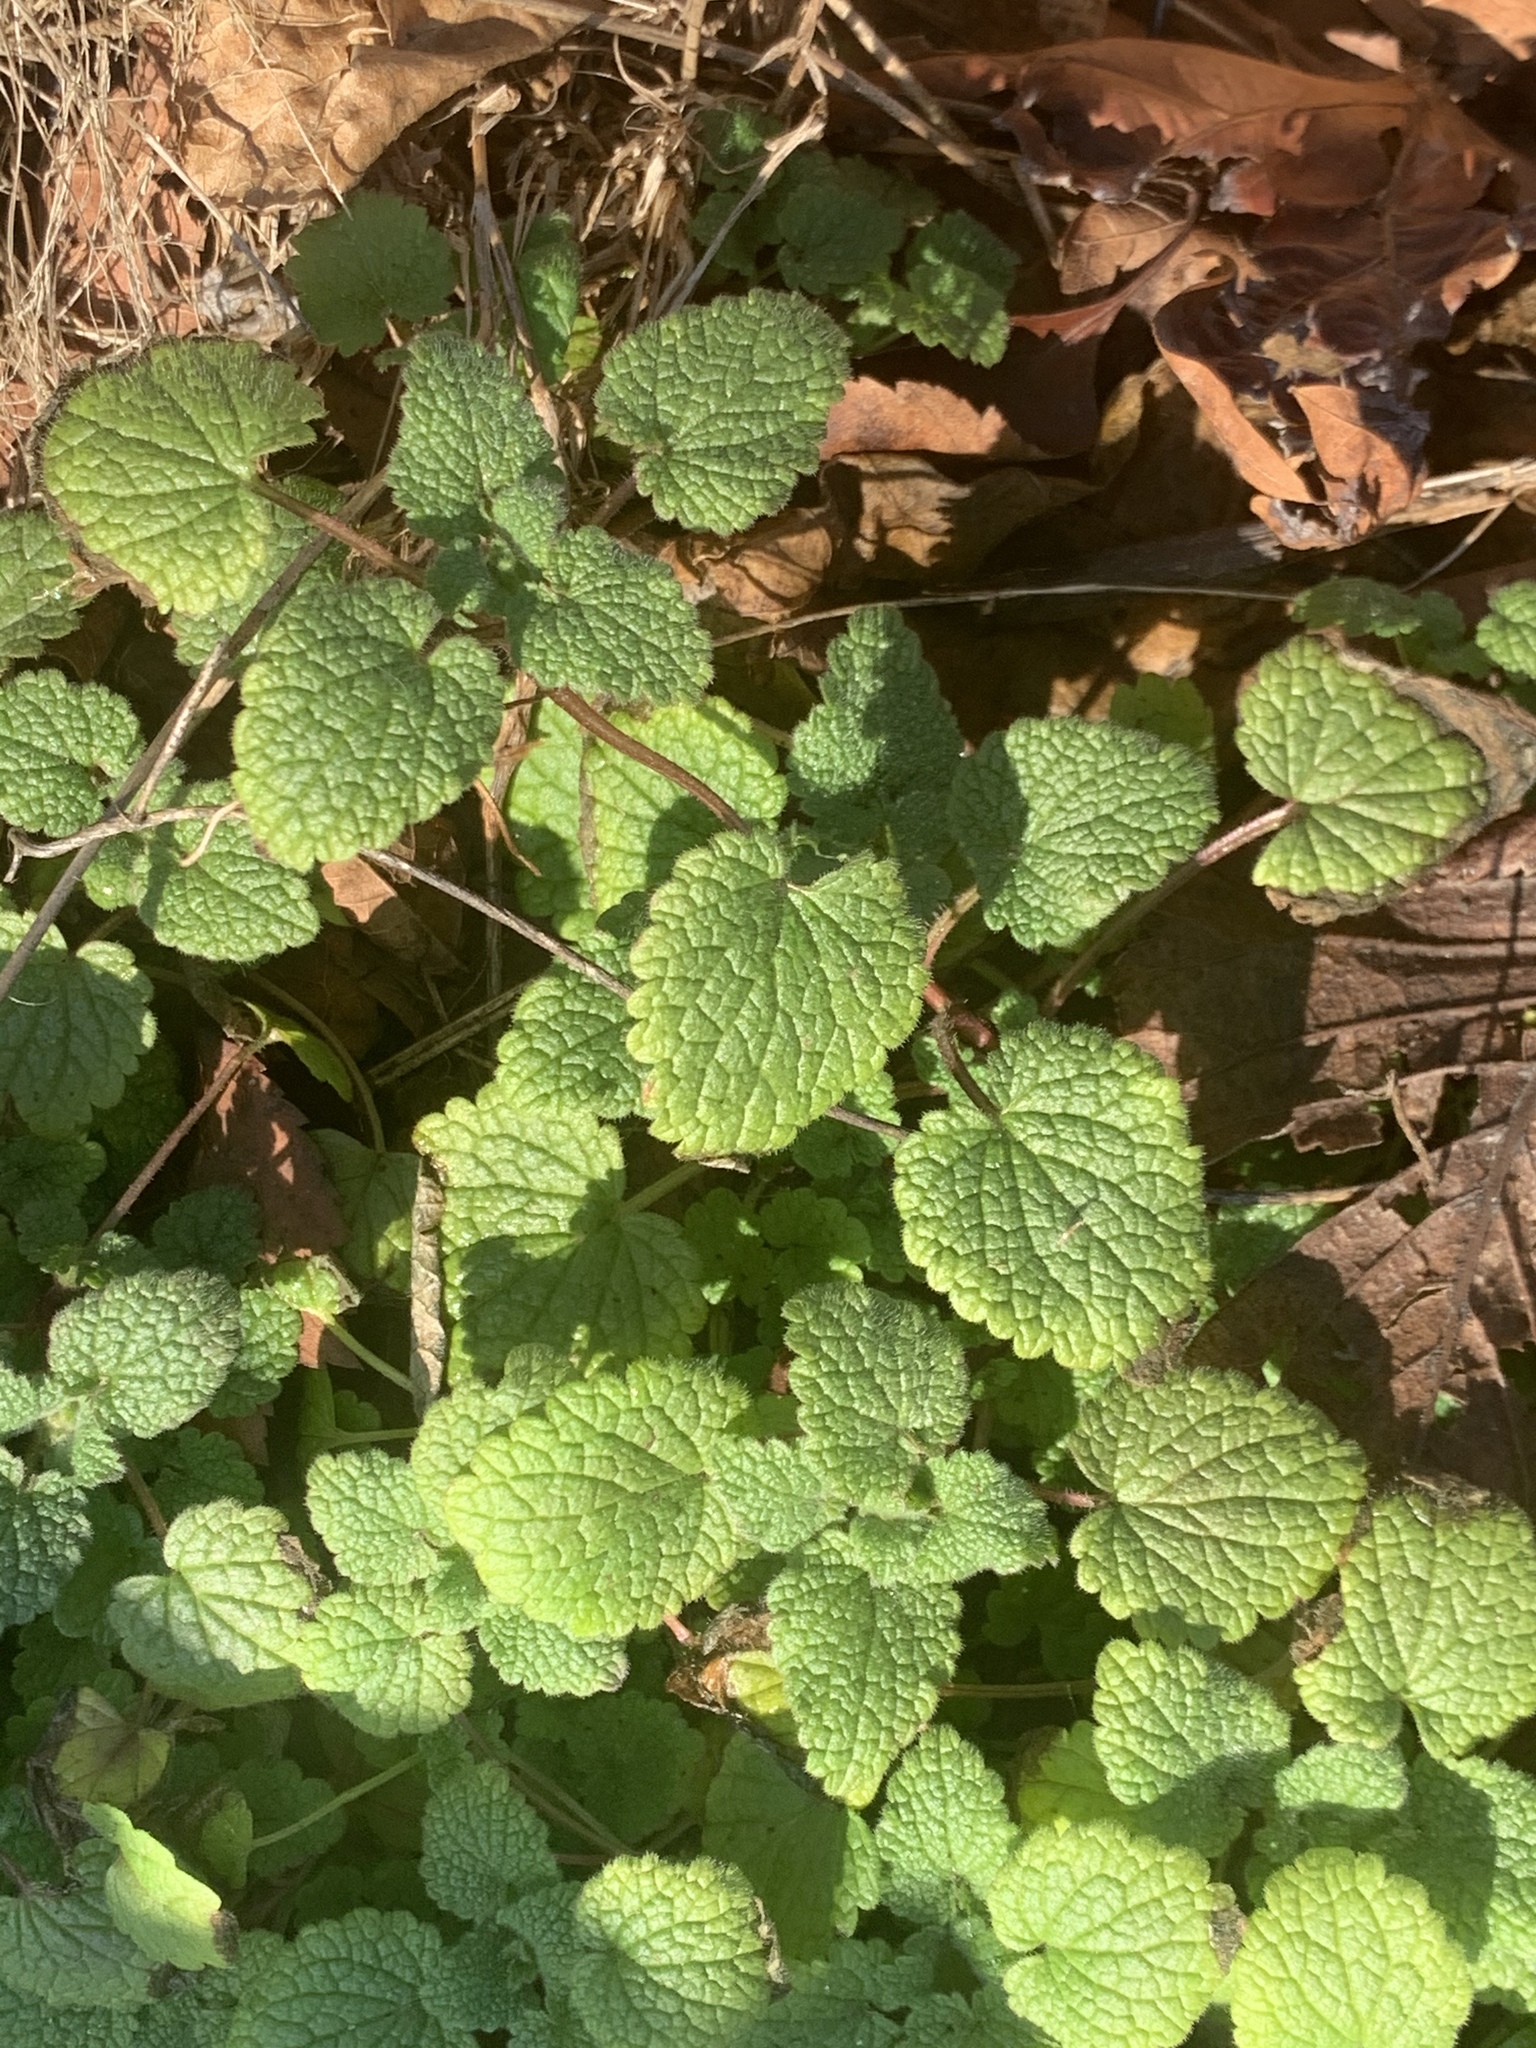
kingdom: Plantae
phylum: Tracheophyta
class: Magnoliopsida
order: Lamiales
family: Lamiaceae
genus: Lamium
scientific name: Lamium purpureum
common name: Red dead-nettle
